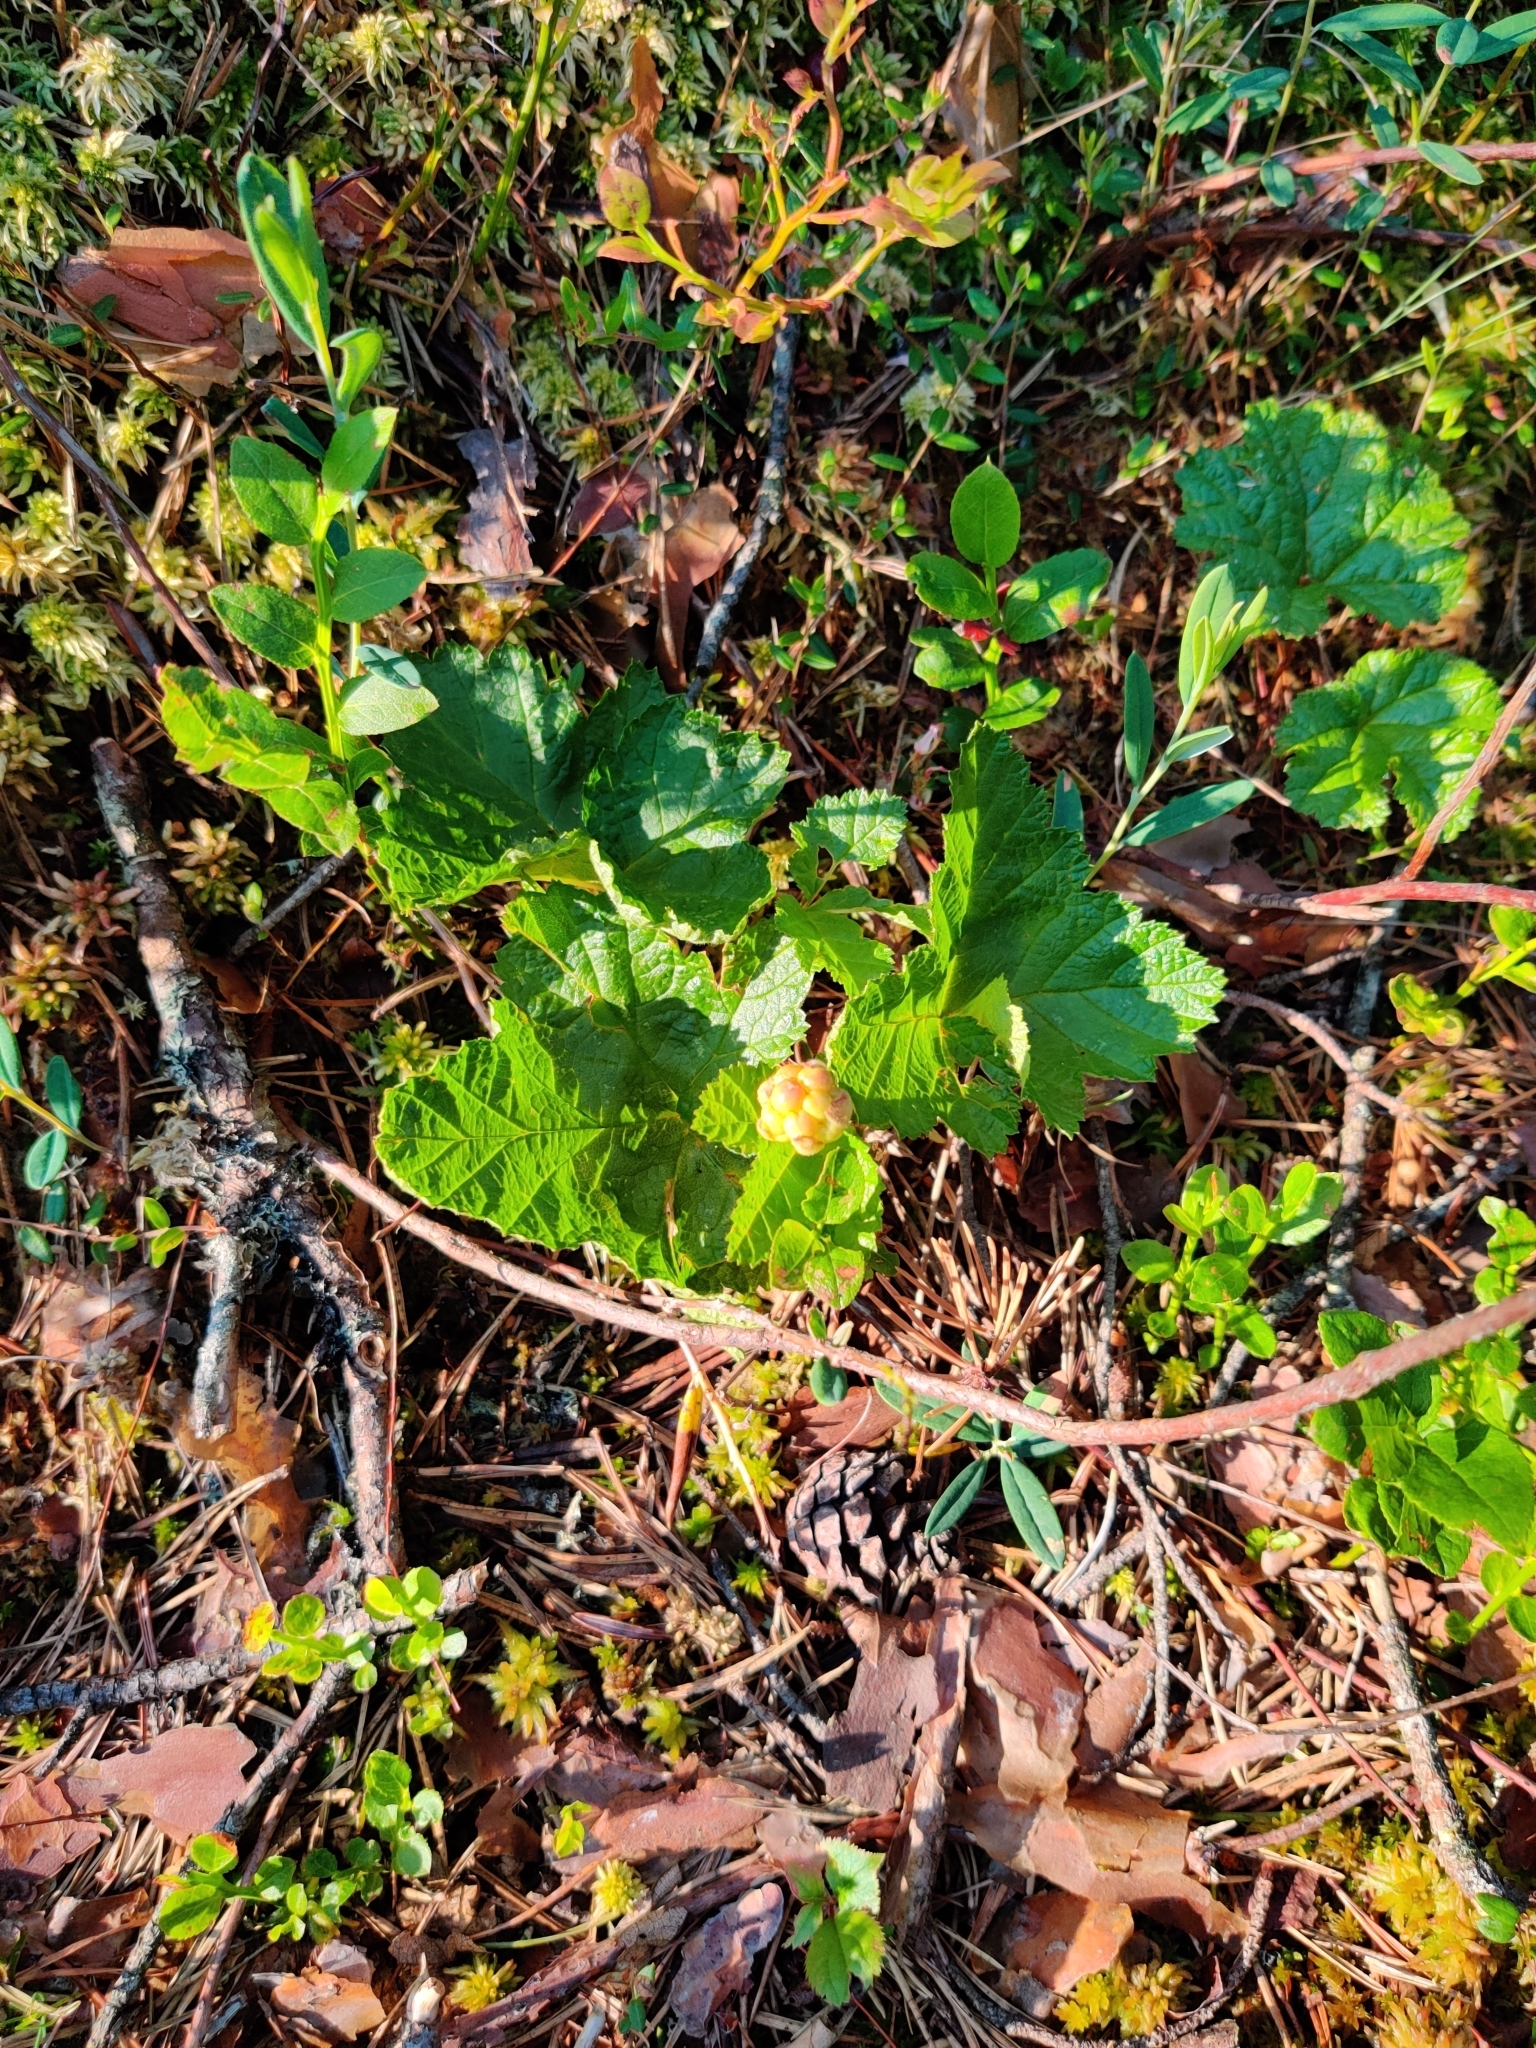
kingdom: Plantae
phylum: Tracheophyta
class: Magnoliopsida
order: Rosales
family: Rosaceae
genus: Rubus
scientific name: Rubus chamaemorus
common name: Cloudberry
